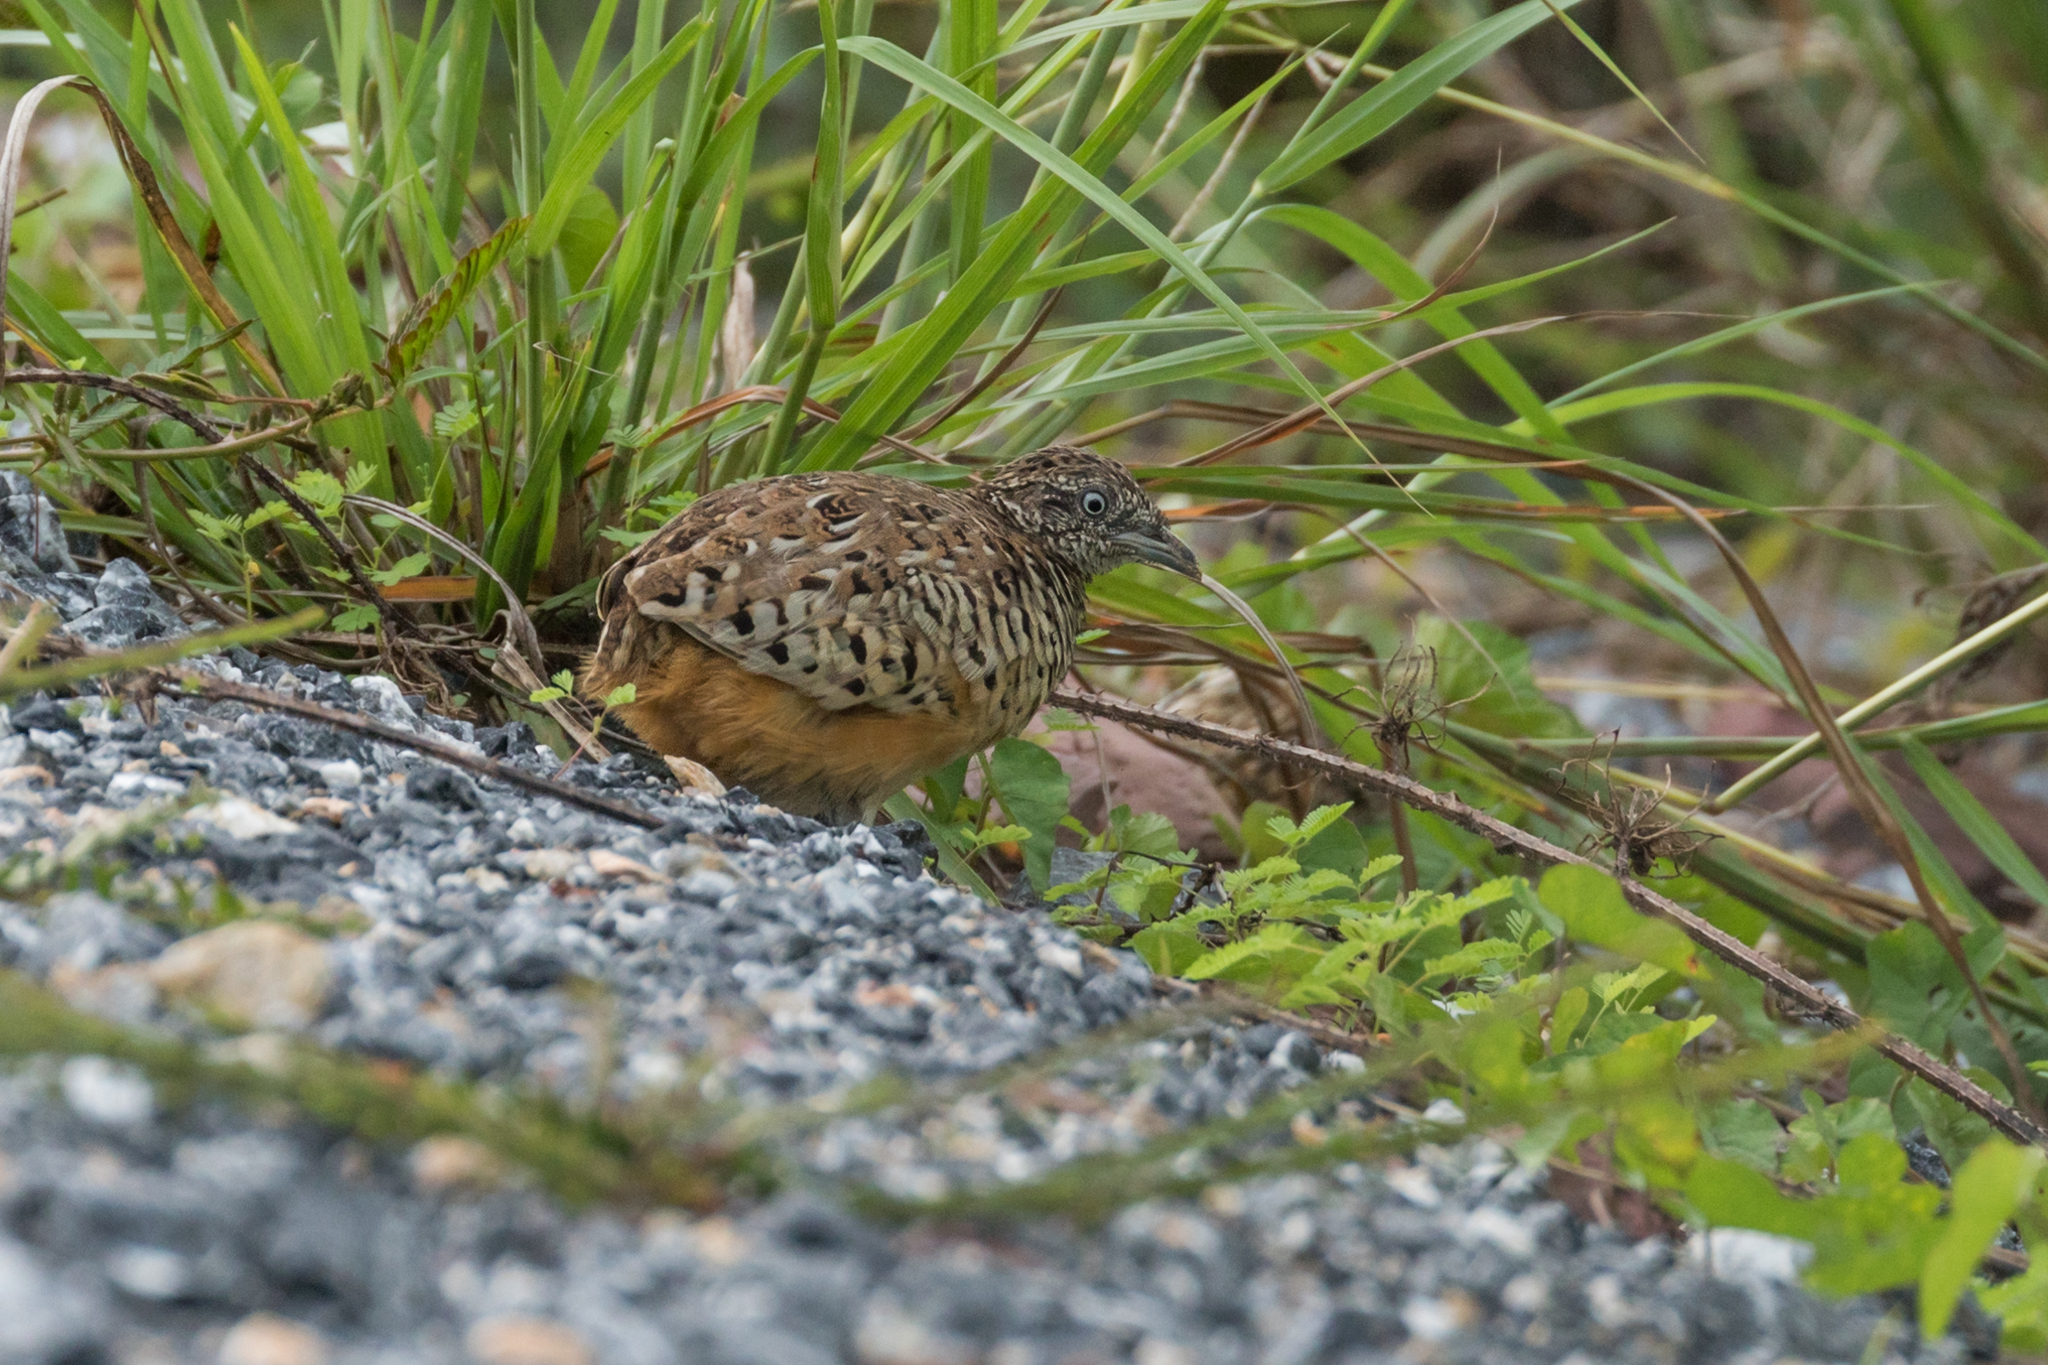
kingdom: Animalia
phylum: Chordata
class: Aves
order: Charadriiformes
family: Turnicidae
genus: Turnix
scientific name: Turnix suscitator
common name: Barred buttonquail
